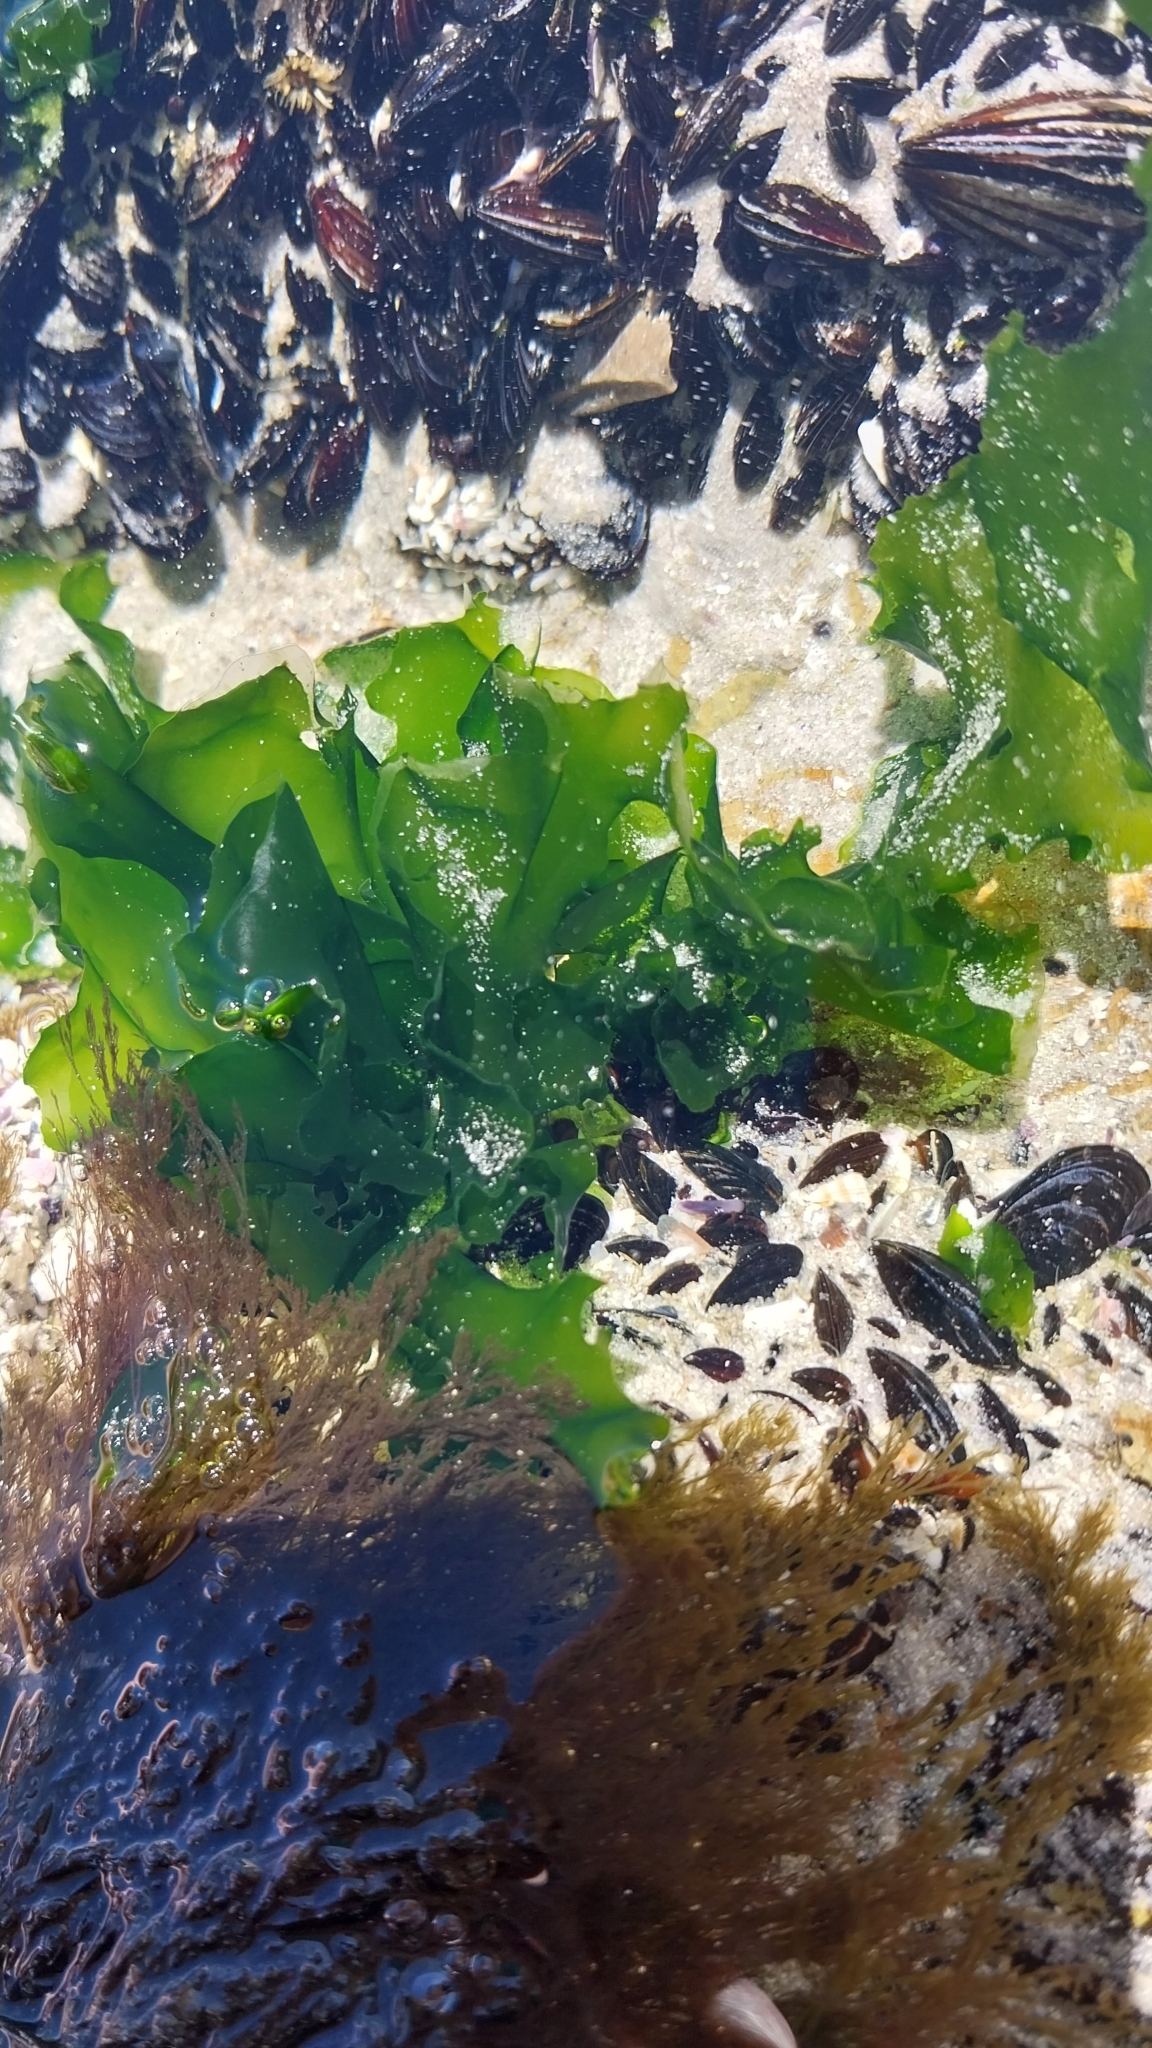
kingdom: Plantae
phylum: Chlorophyta
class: Ulvophyceae
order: Ulvales
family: Ulvaceae
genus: Ulva
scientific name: Ulva lactuca
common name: Sea lettuce
